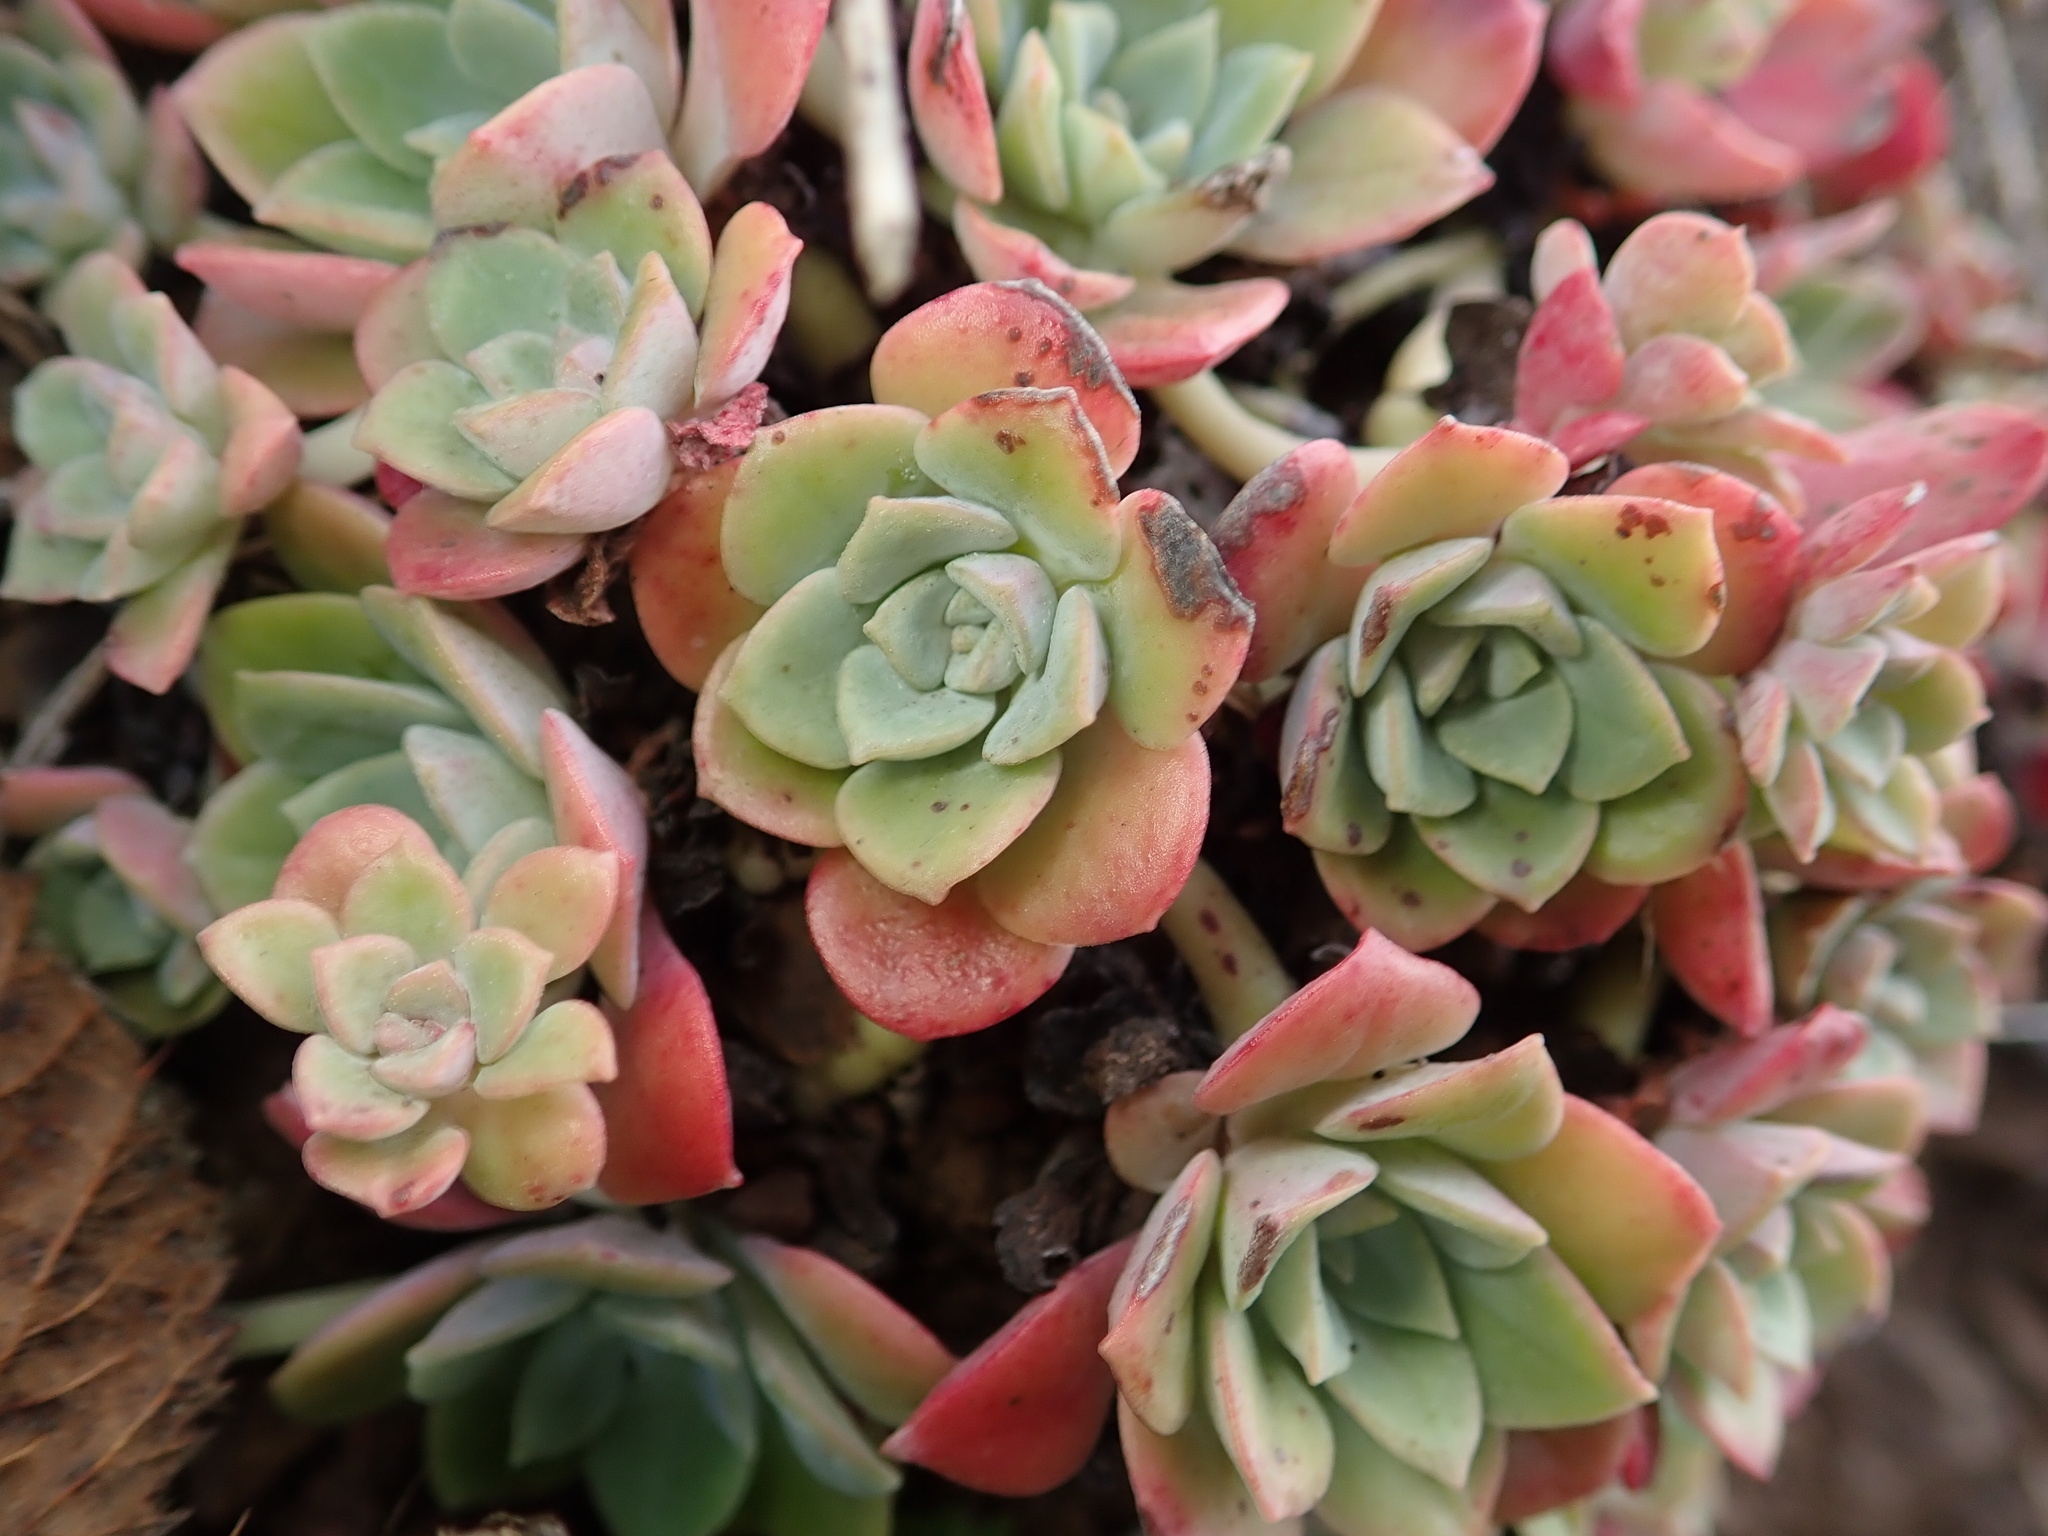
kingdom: Plantae
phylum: Tracheophyta
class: Magnoliopsida
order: Saxifragales
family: Crassulaceae
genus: Sedum
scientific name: Sedum spathulifolium
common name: Colorado stonecrop
